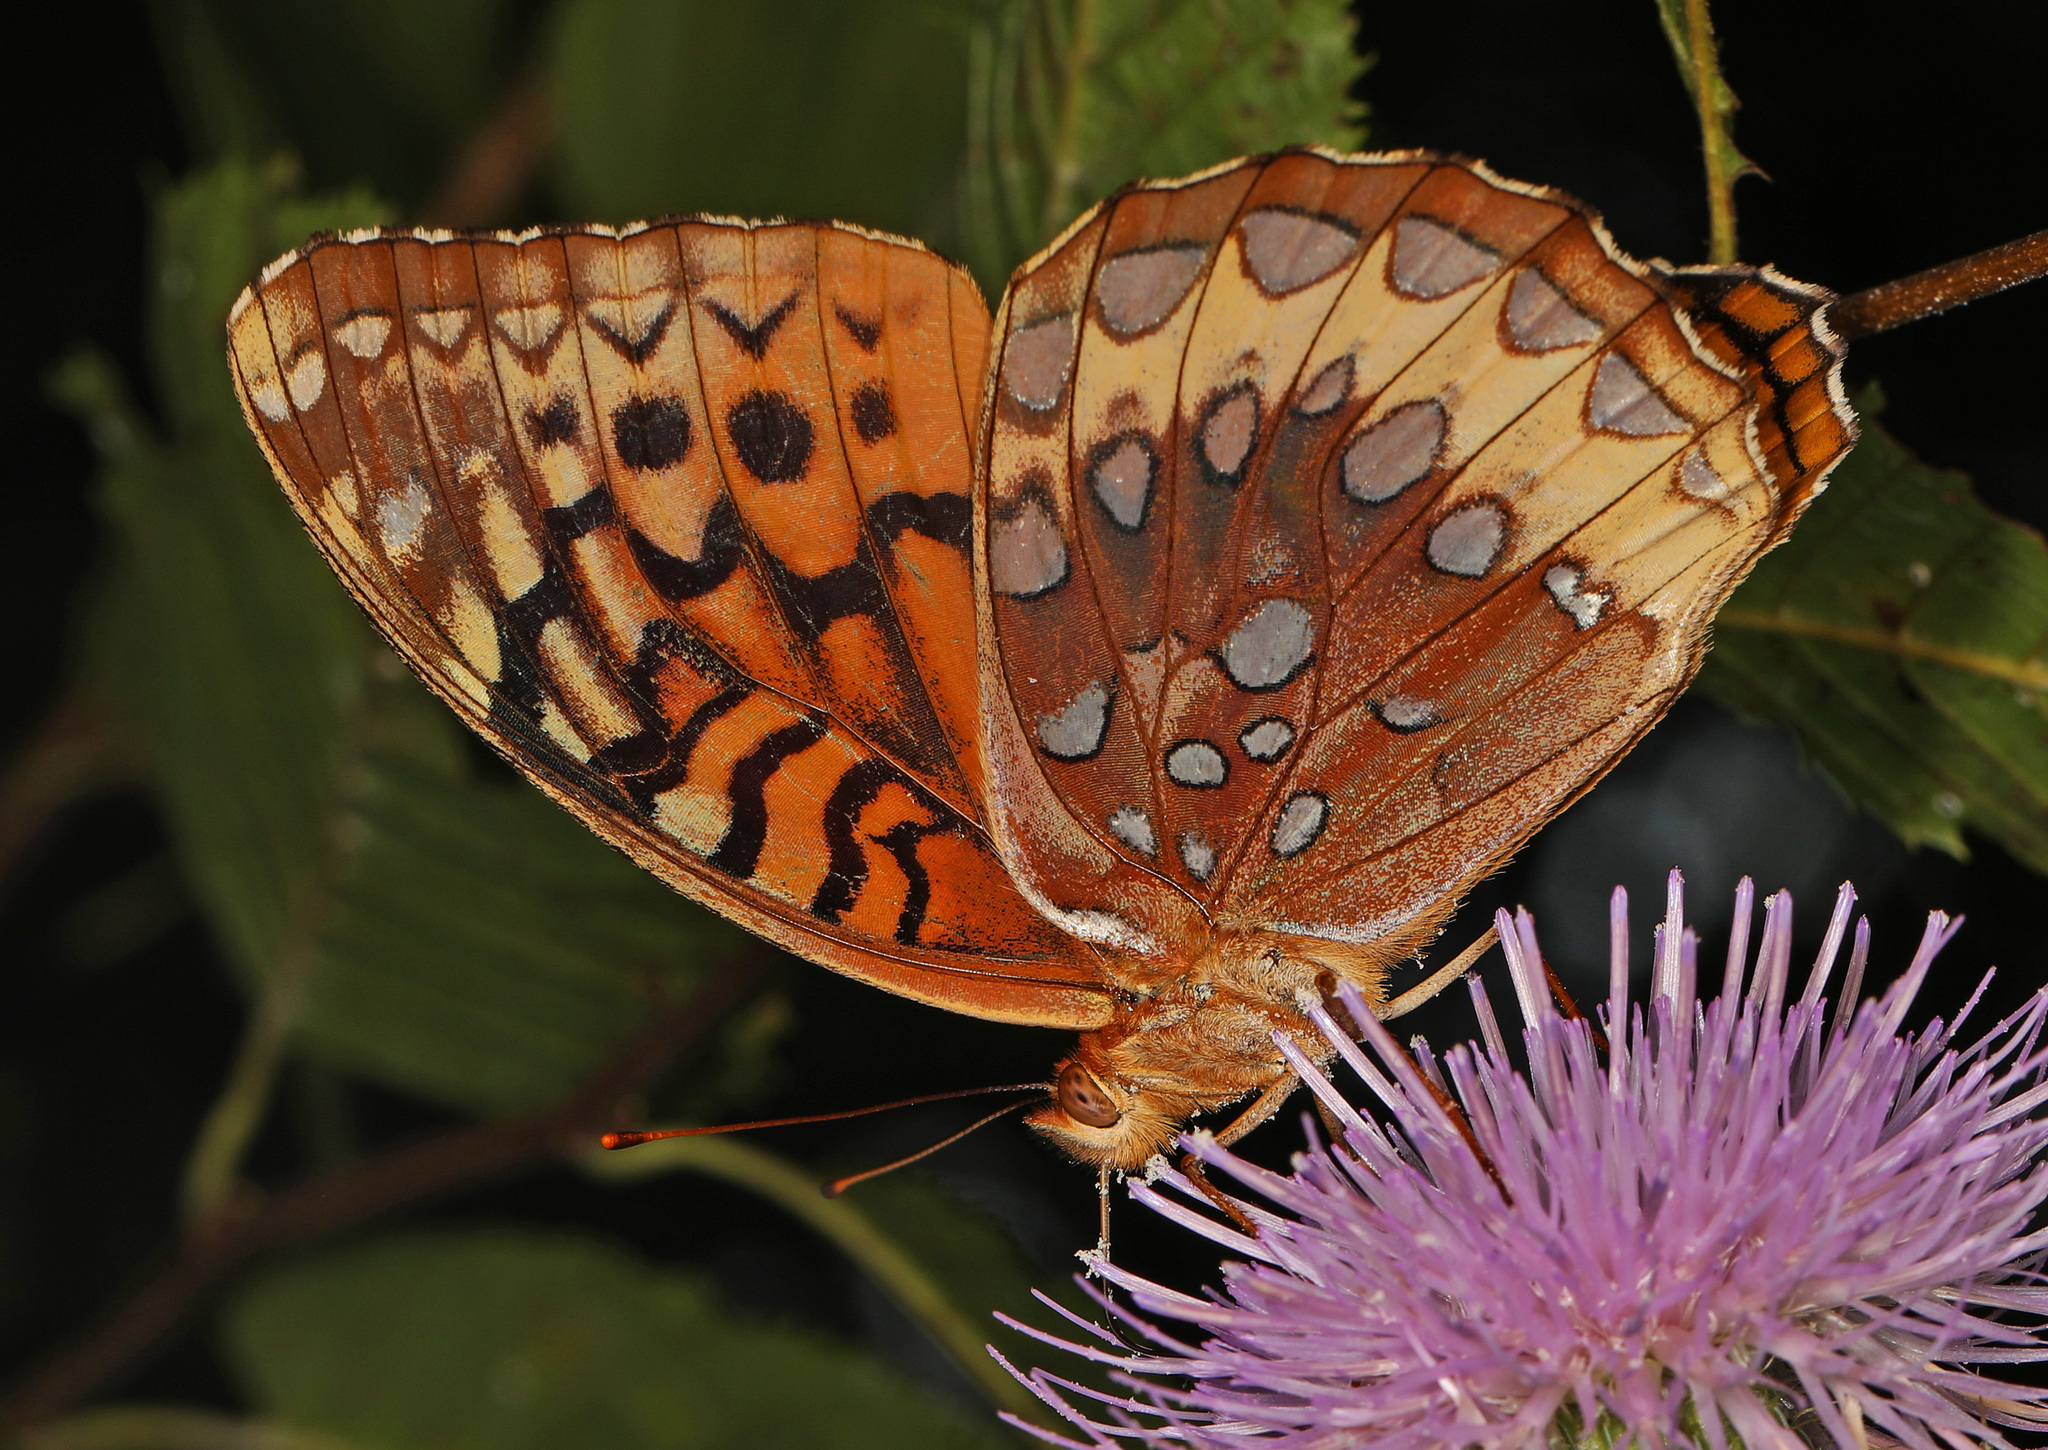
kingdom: Animalia
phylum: Arthropoda
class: Insecta
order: Lepidoptera
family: Nymphalidae
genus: Speyeria
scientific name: Speyeria cybele
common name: Great spangled fritillary
